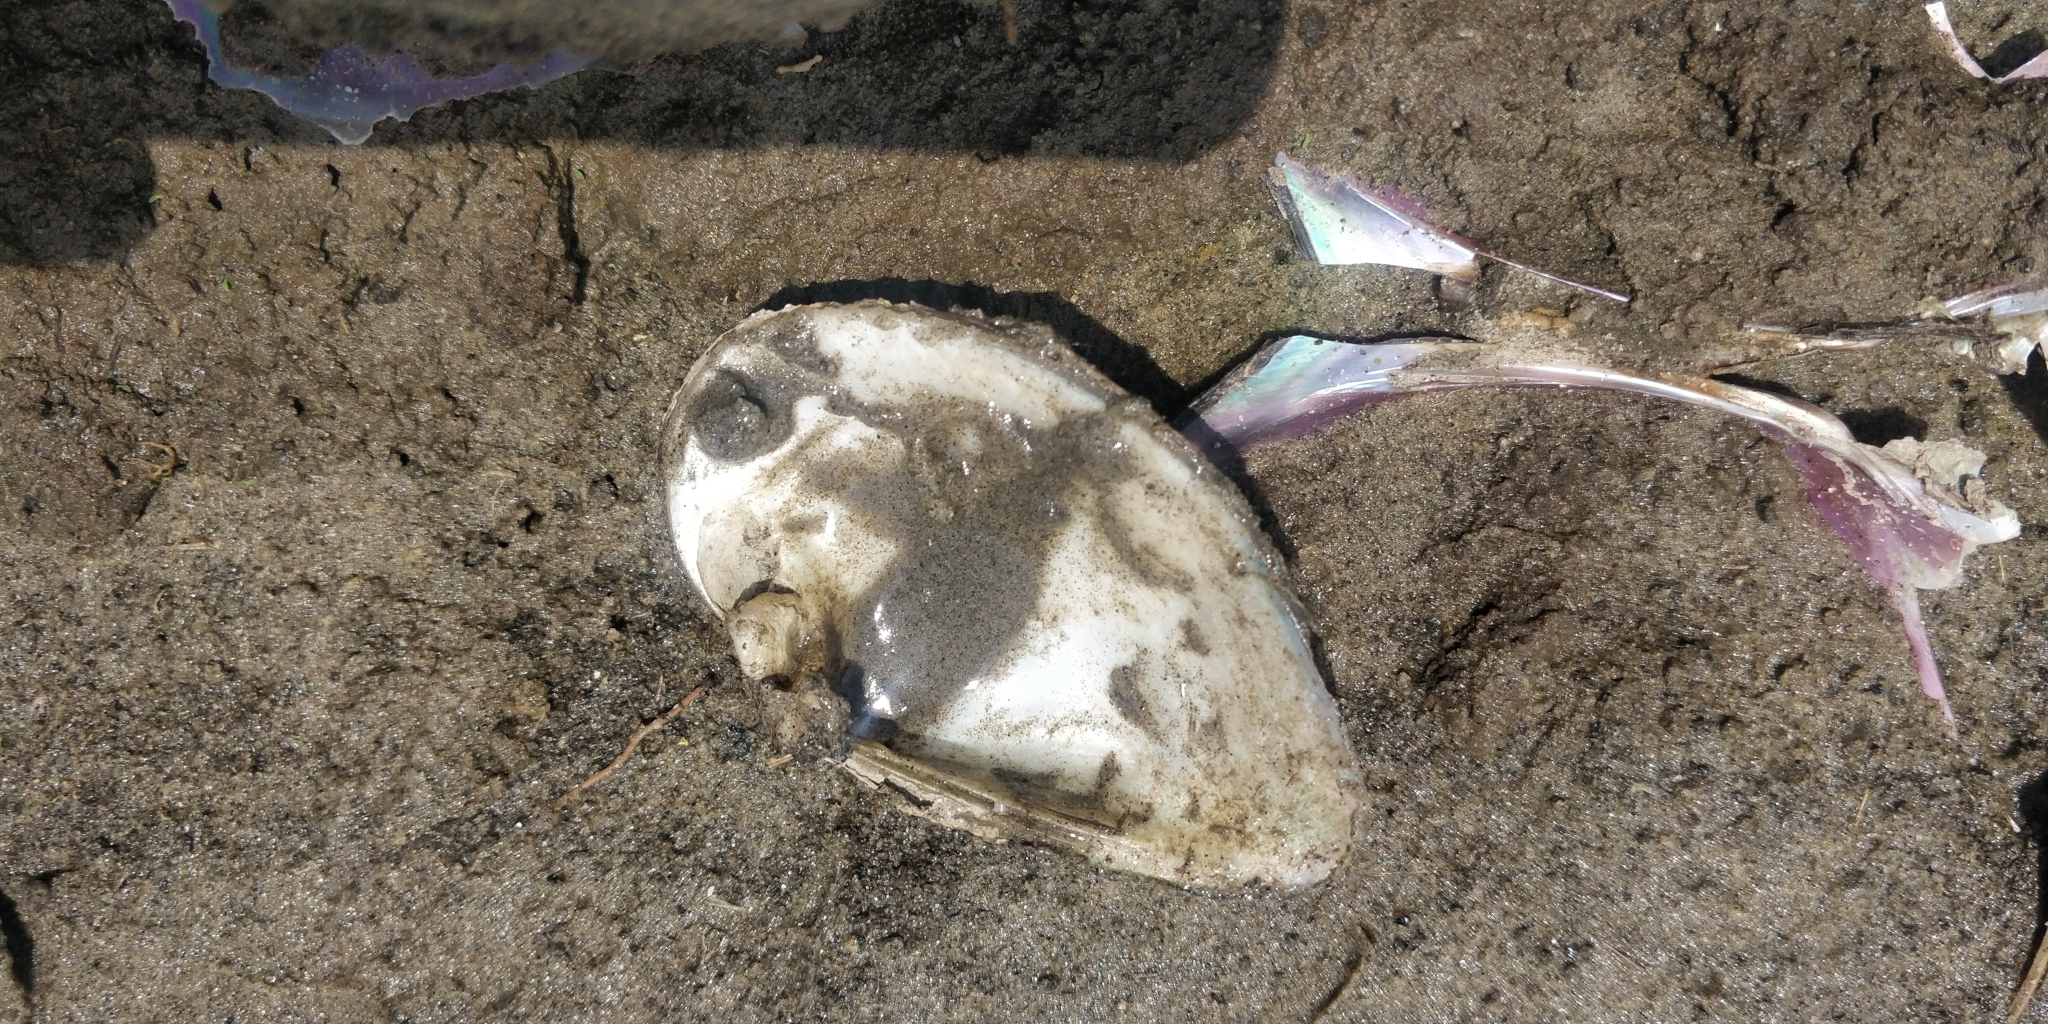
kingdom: Animalia
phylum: Mollusca
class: Bivalvia
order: Unionida
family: Unionidae
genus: Truncilla
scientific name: Truncilla truncata
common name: Deertoe
